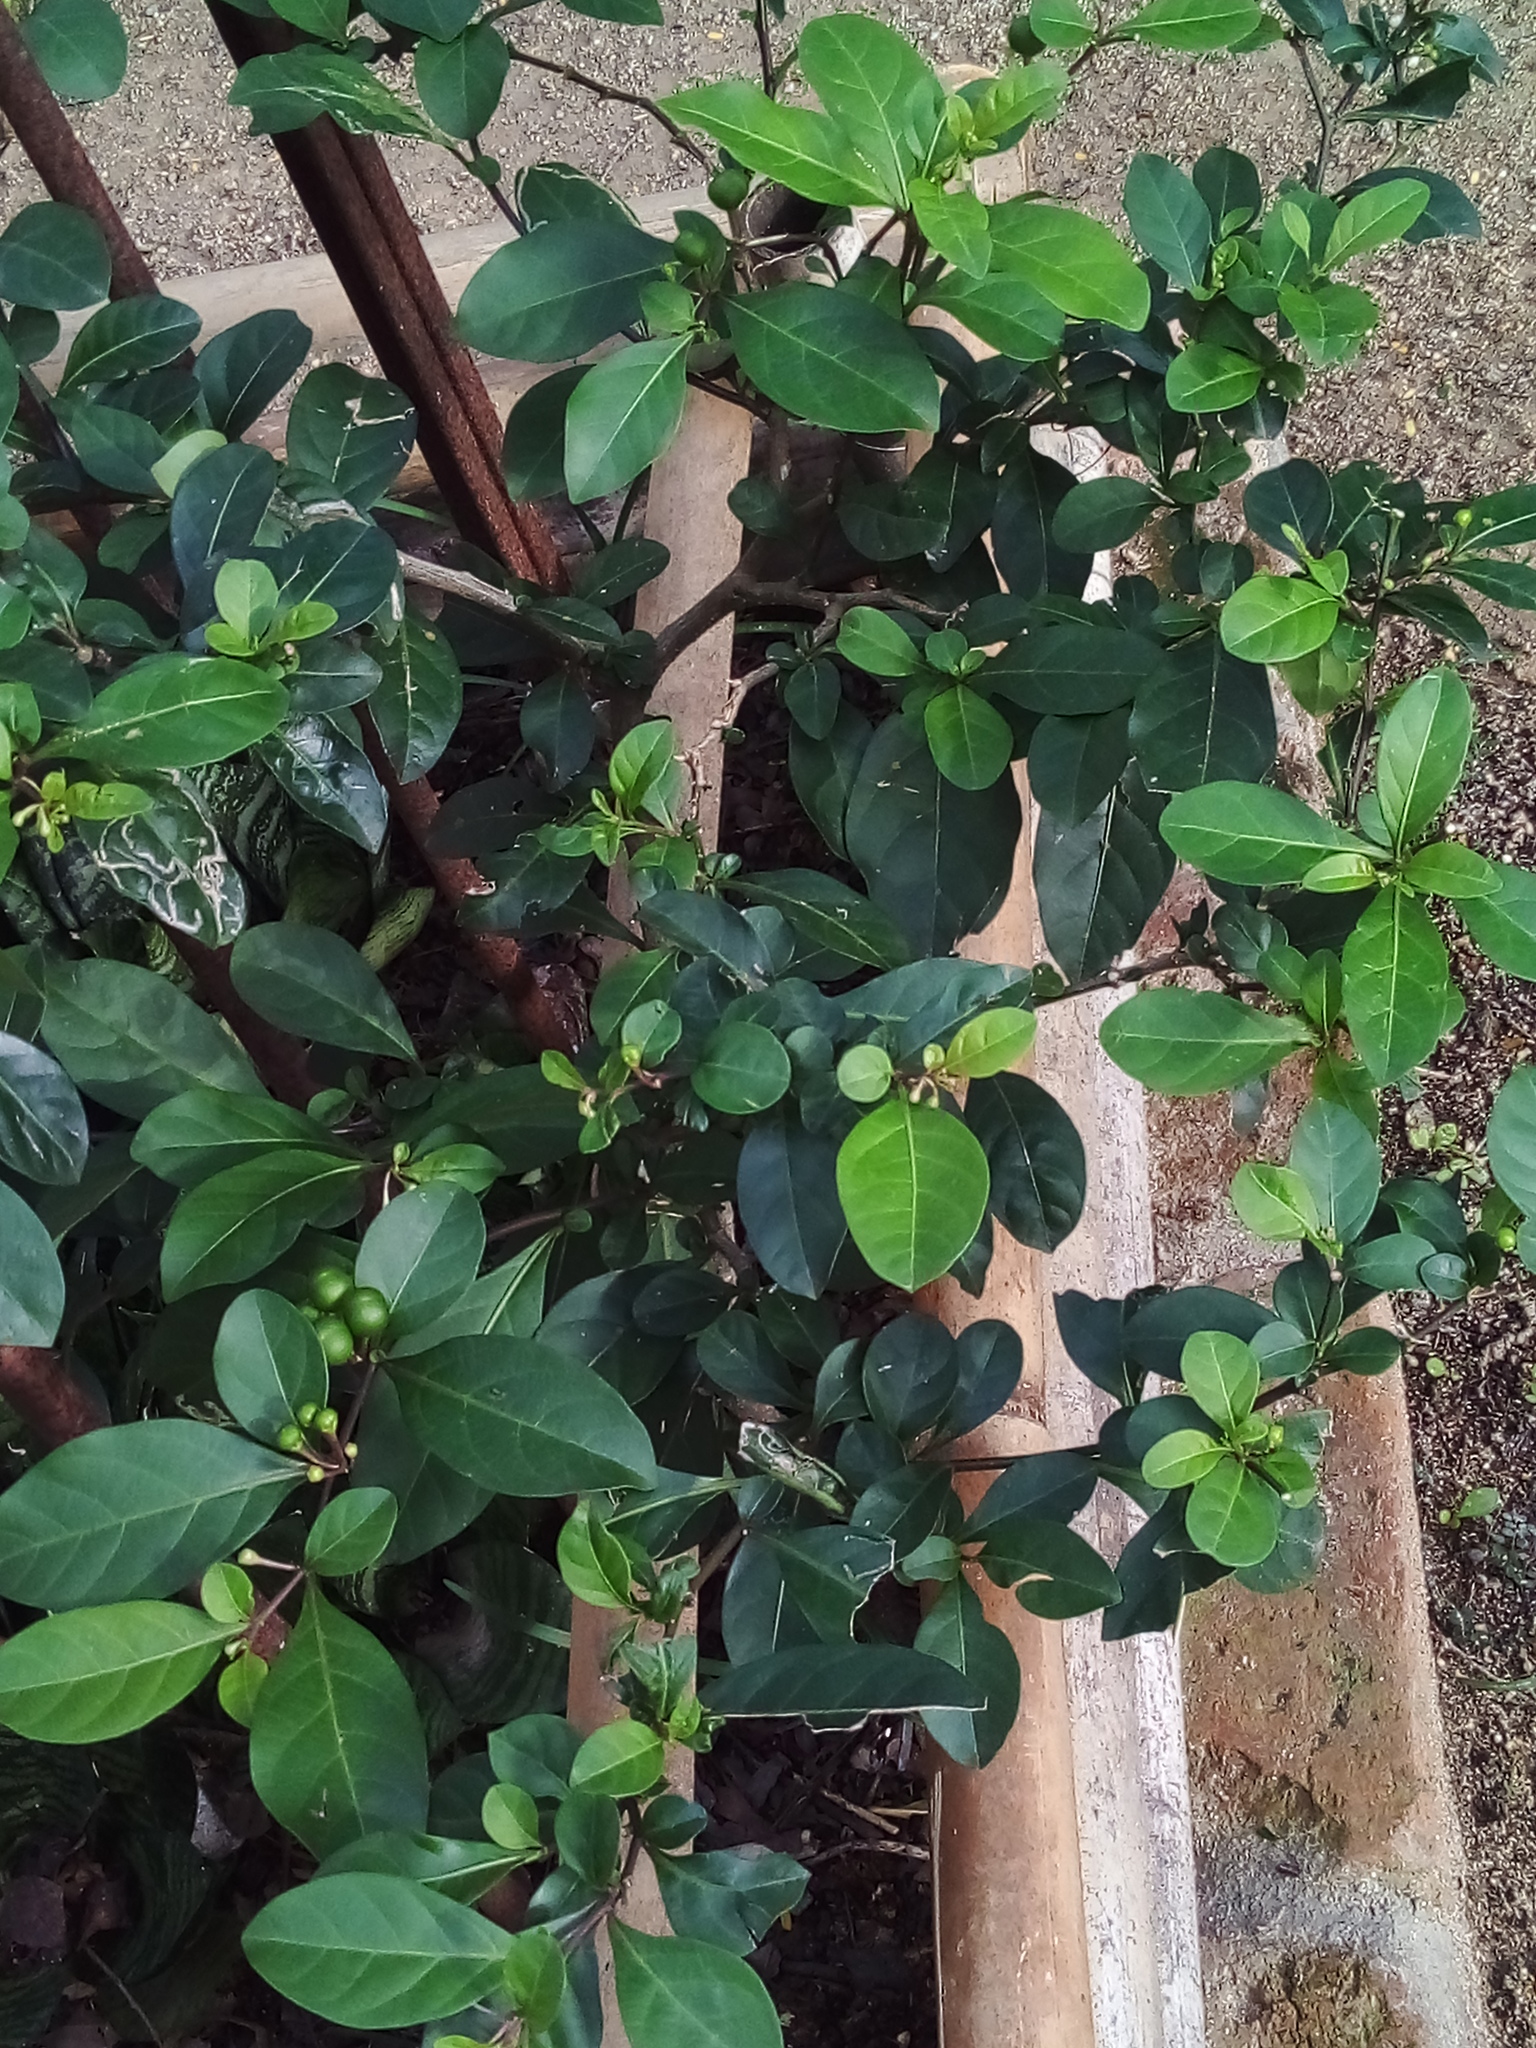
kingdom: Plantae
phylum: Tracheophyta
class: Magnoliopsida
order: Solanales
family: Solanaceae
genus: Solanum
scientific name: Solanum diphyllum
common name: Twoleaf nightshade
